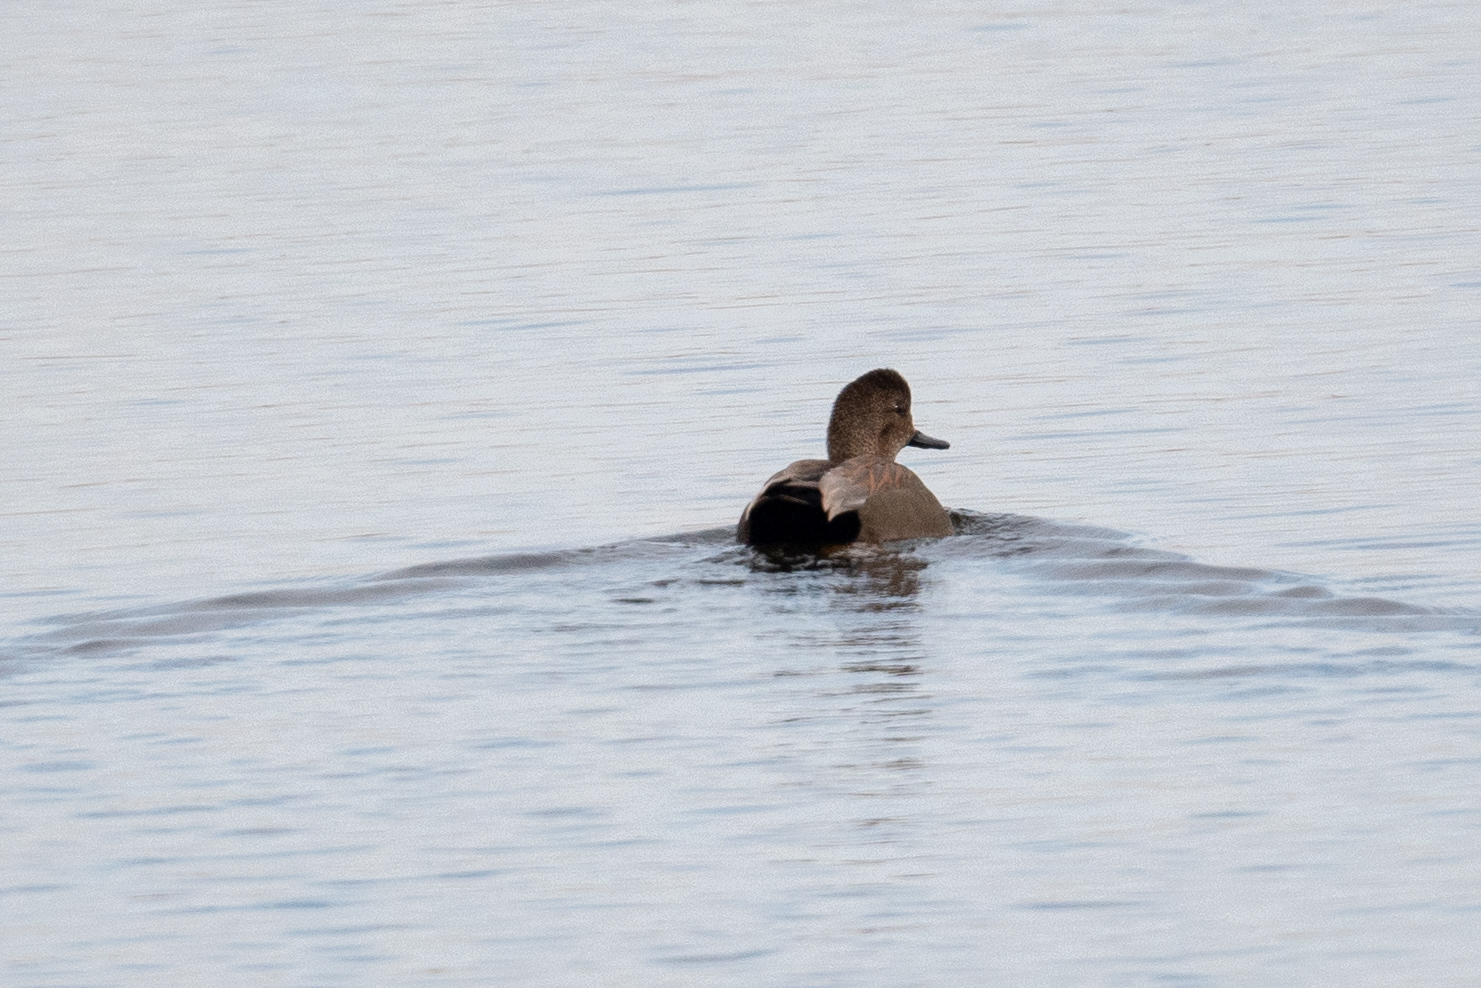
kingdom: Animalia
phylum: Chordata
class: Aves
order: Anseriformes
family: Anatidae
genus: Mareca
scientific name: Mareca strepera
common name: Gadwall
